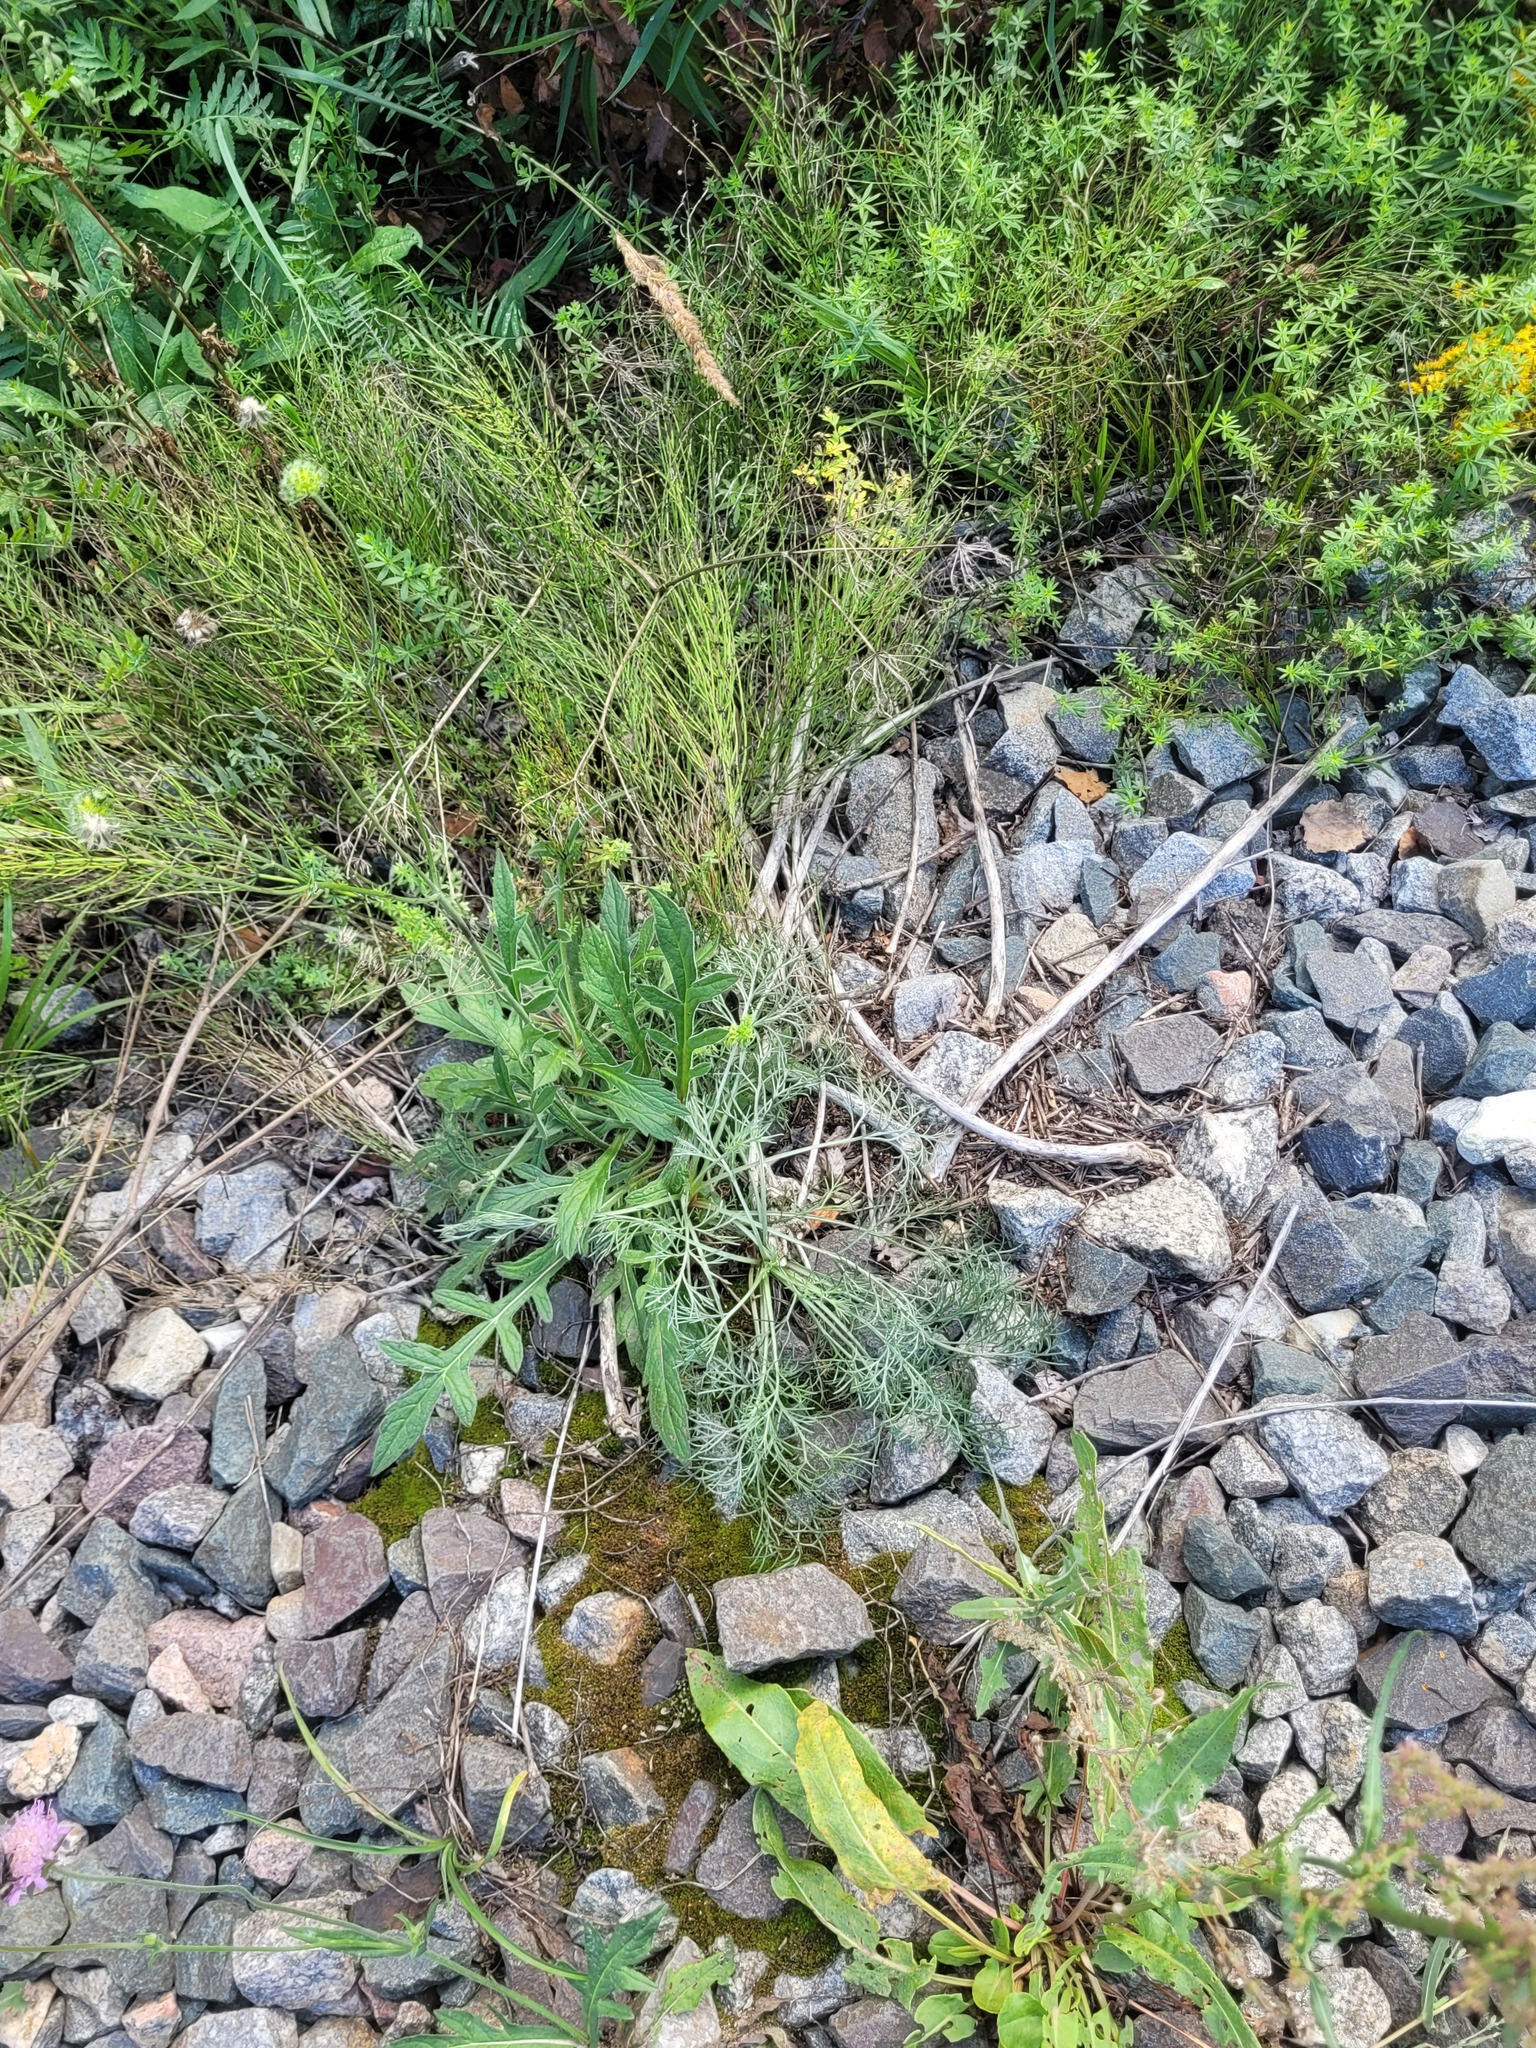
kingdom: Plantae
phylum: Tracheophyta
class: Magnoliopsida
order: Dipsacales
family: Caprifoliaceae
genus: Knautia
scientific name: Knautia arvensis
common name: Field scabiosa
